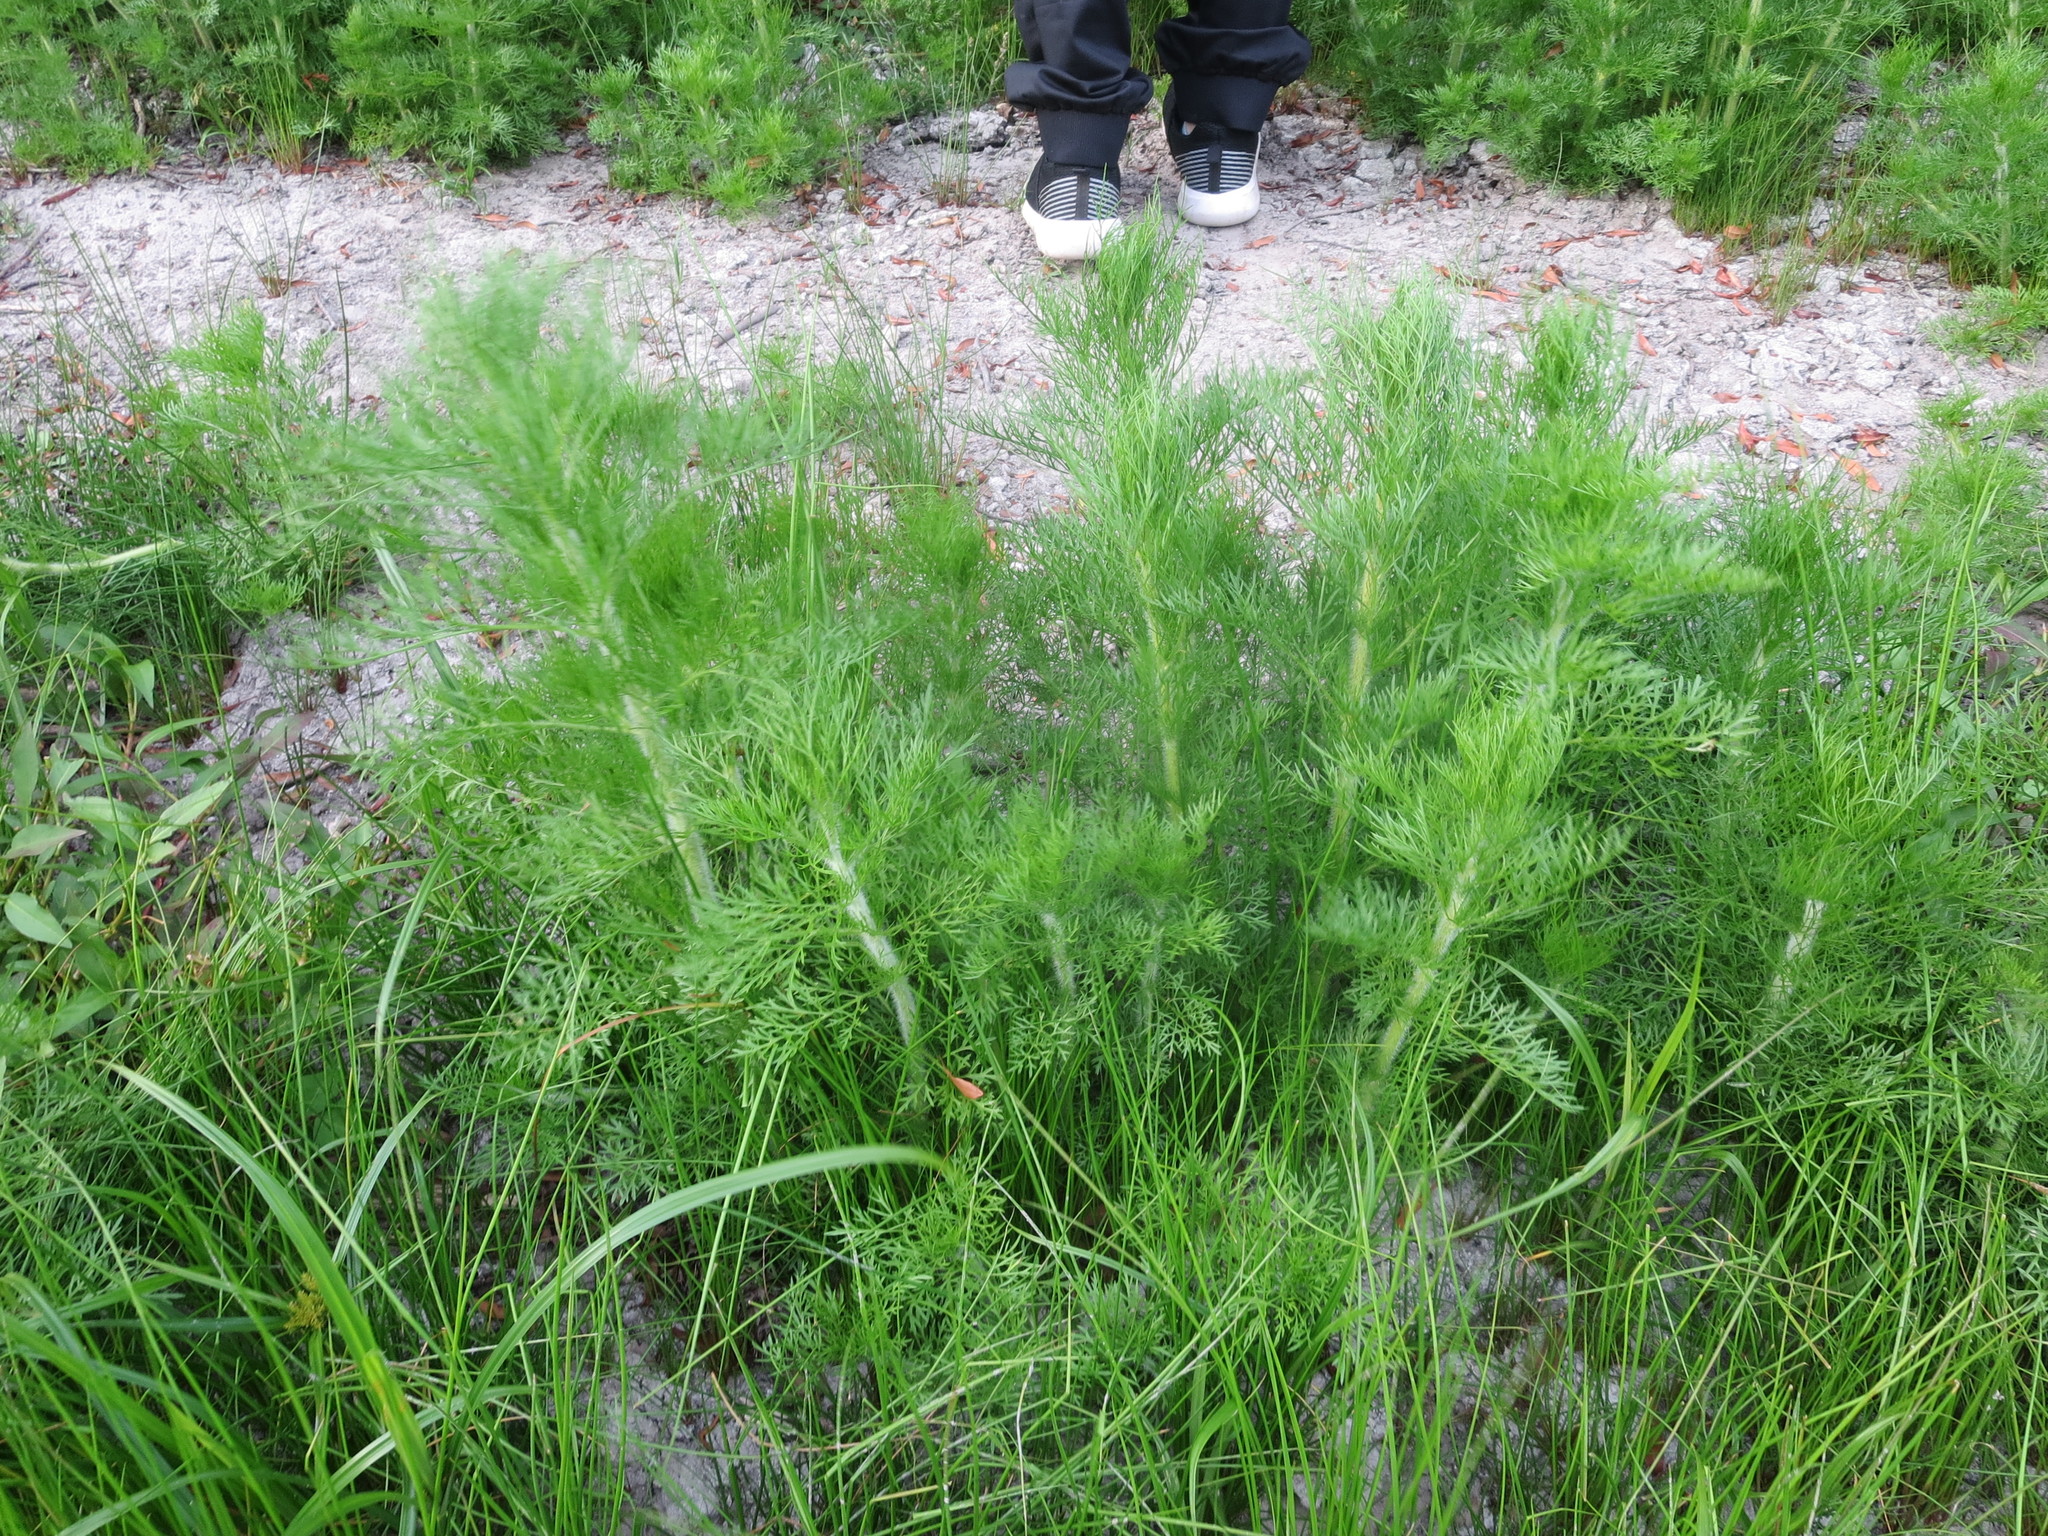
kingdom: Plantae
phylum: Tracheophyta
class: Magnoliopsida
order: Asterales
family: Asteraceae
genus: Eupatorium
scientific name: Eupatorium capillifolium
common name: Dog-fennel
